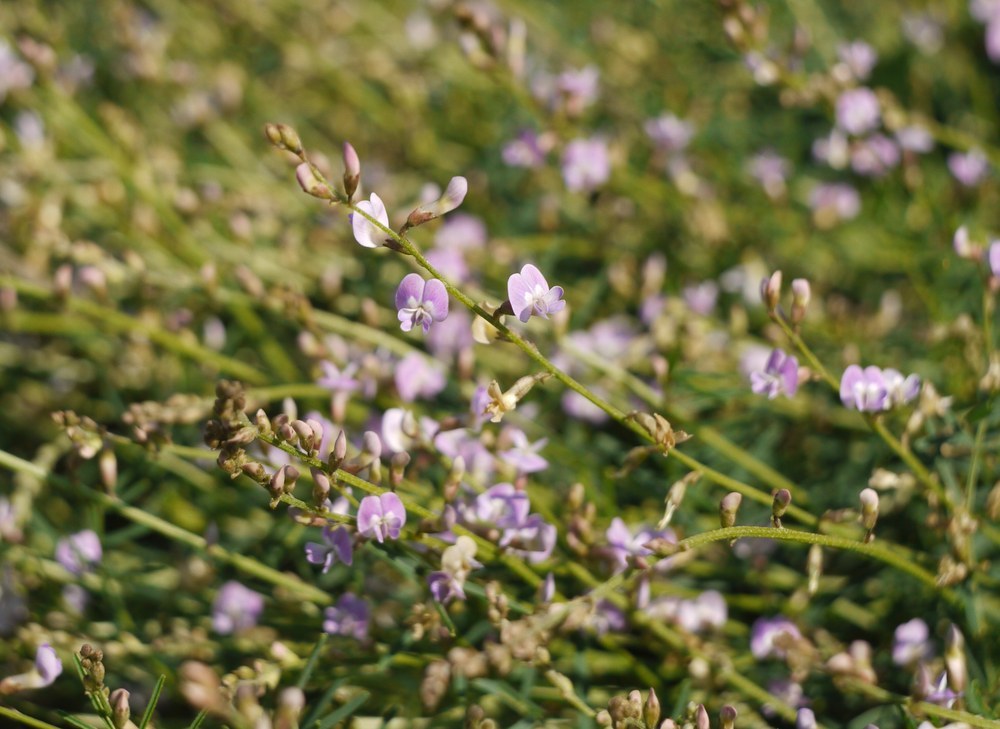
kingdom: Plantae
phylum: Tracheophyta
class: Magnoliopsida
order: Fabales
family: Fabaceae
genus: Astragalus
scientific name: Astragalus austriacus
